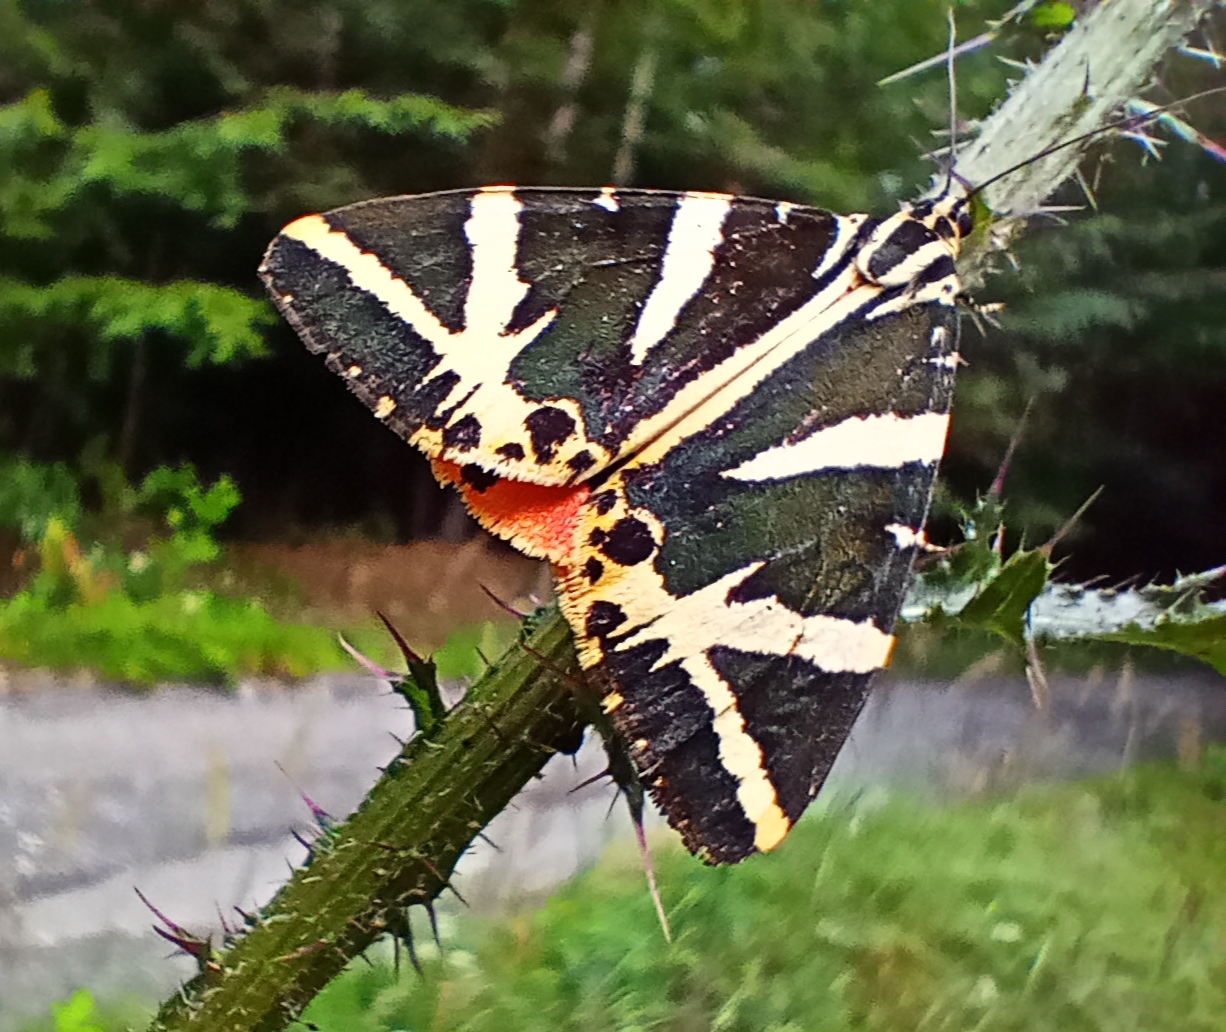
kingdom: Animalia
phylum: Arthropoda
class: Insecta
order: Lepidoptera
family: Erebidae
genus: Euplagia
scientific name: Euplagia quadripunctaria
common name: Jersey tiger
